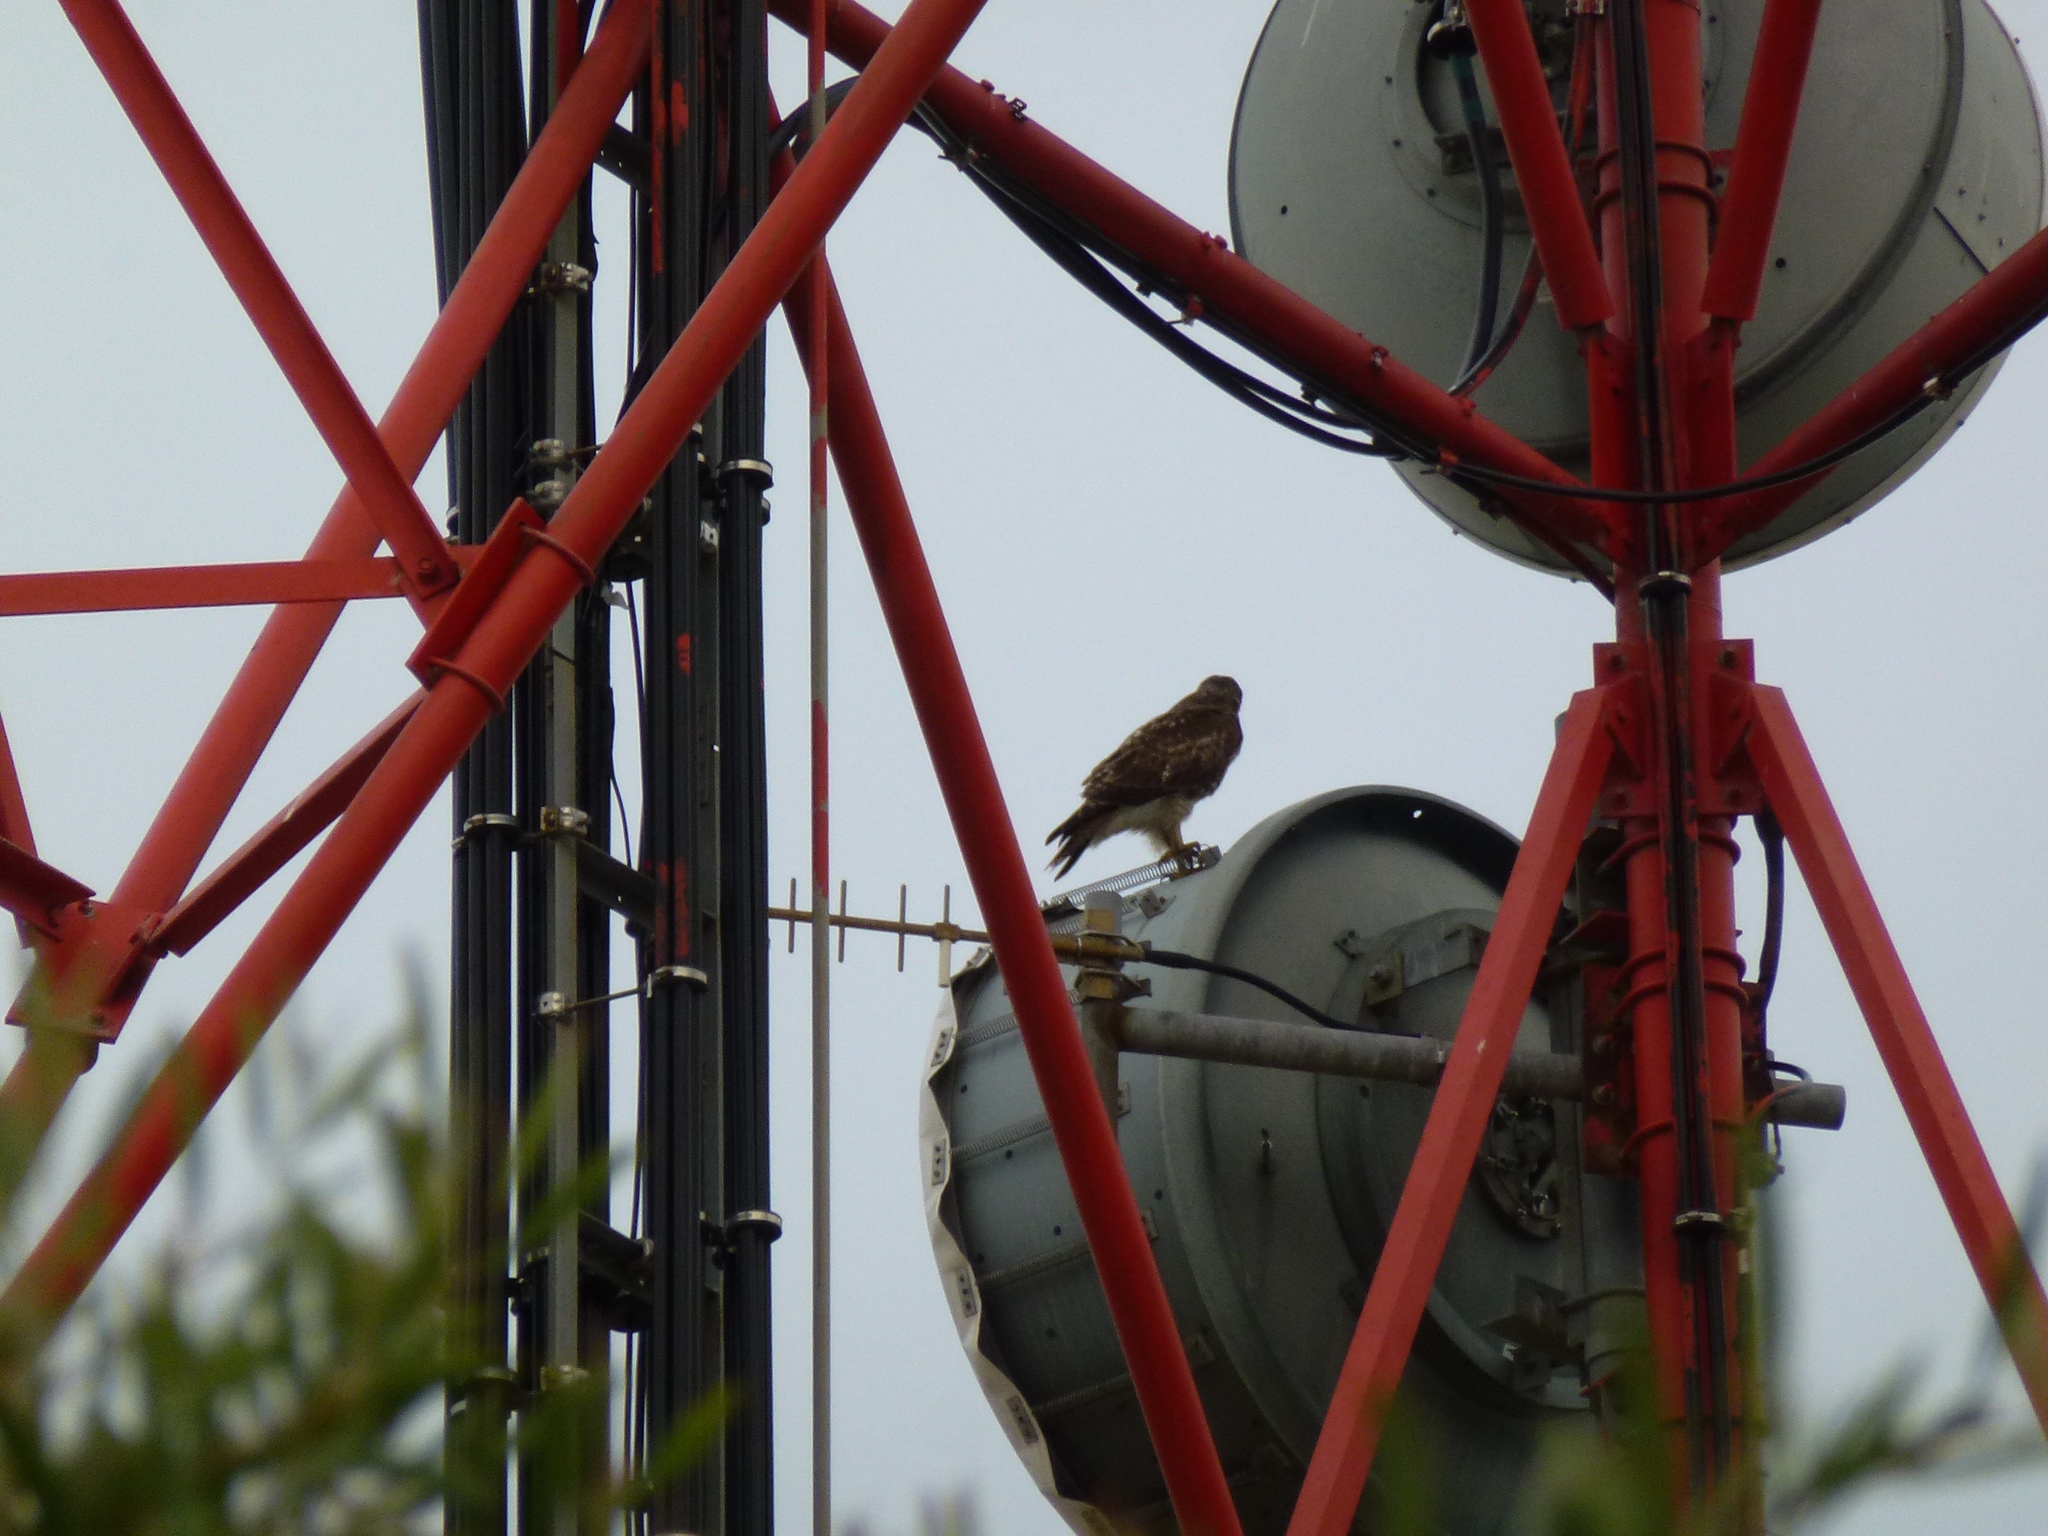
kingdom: Animalia
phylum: Chordata
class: Aves
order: Accipitriformes
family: Accipitridae
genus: Buteo
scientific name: Buteo jamaicensis
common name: Red-tailed hawk
